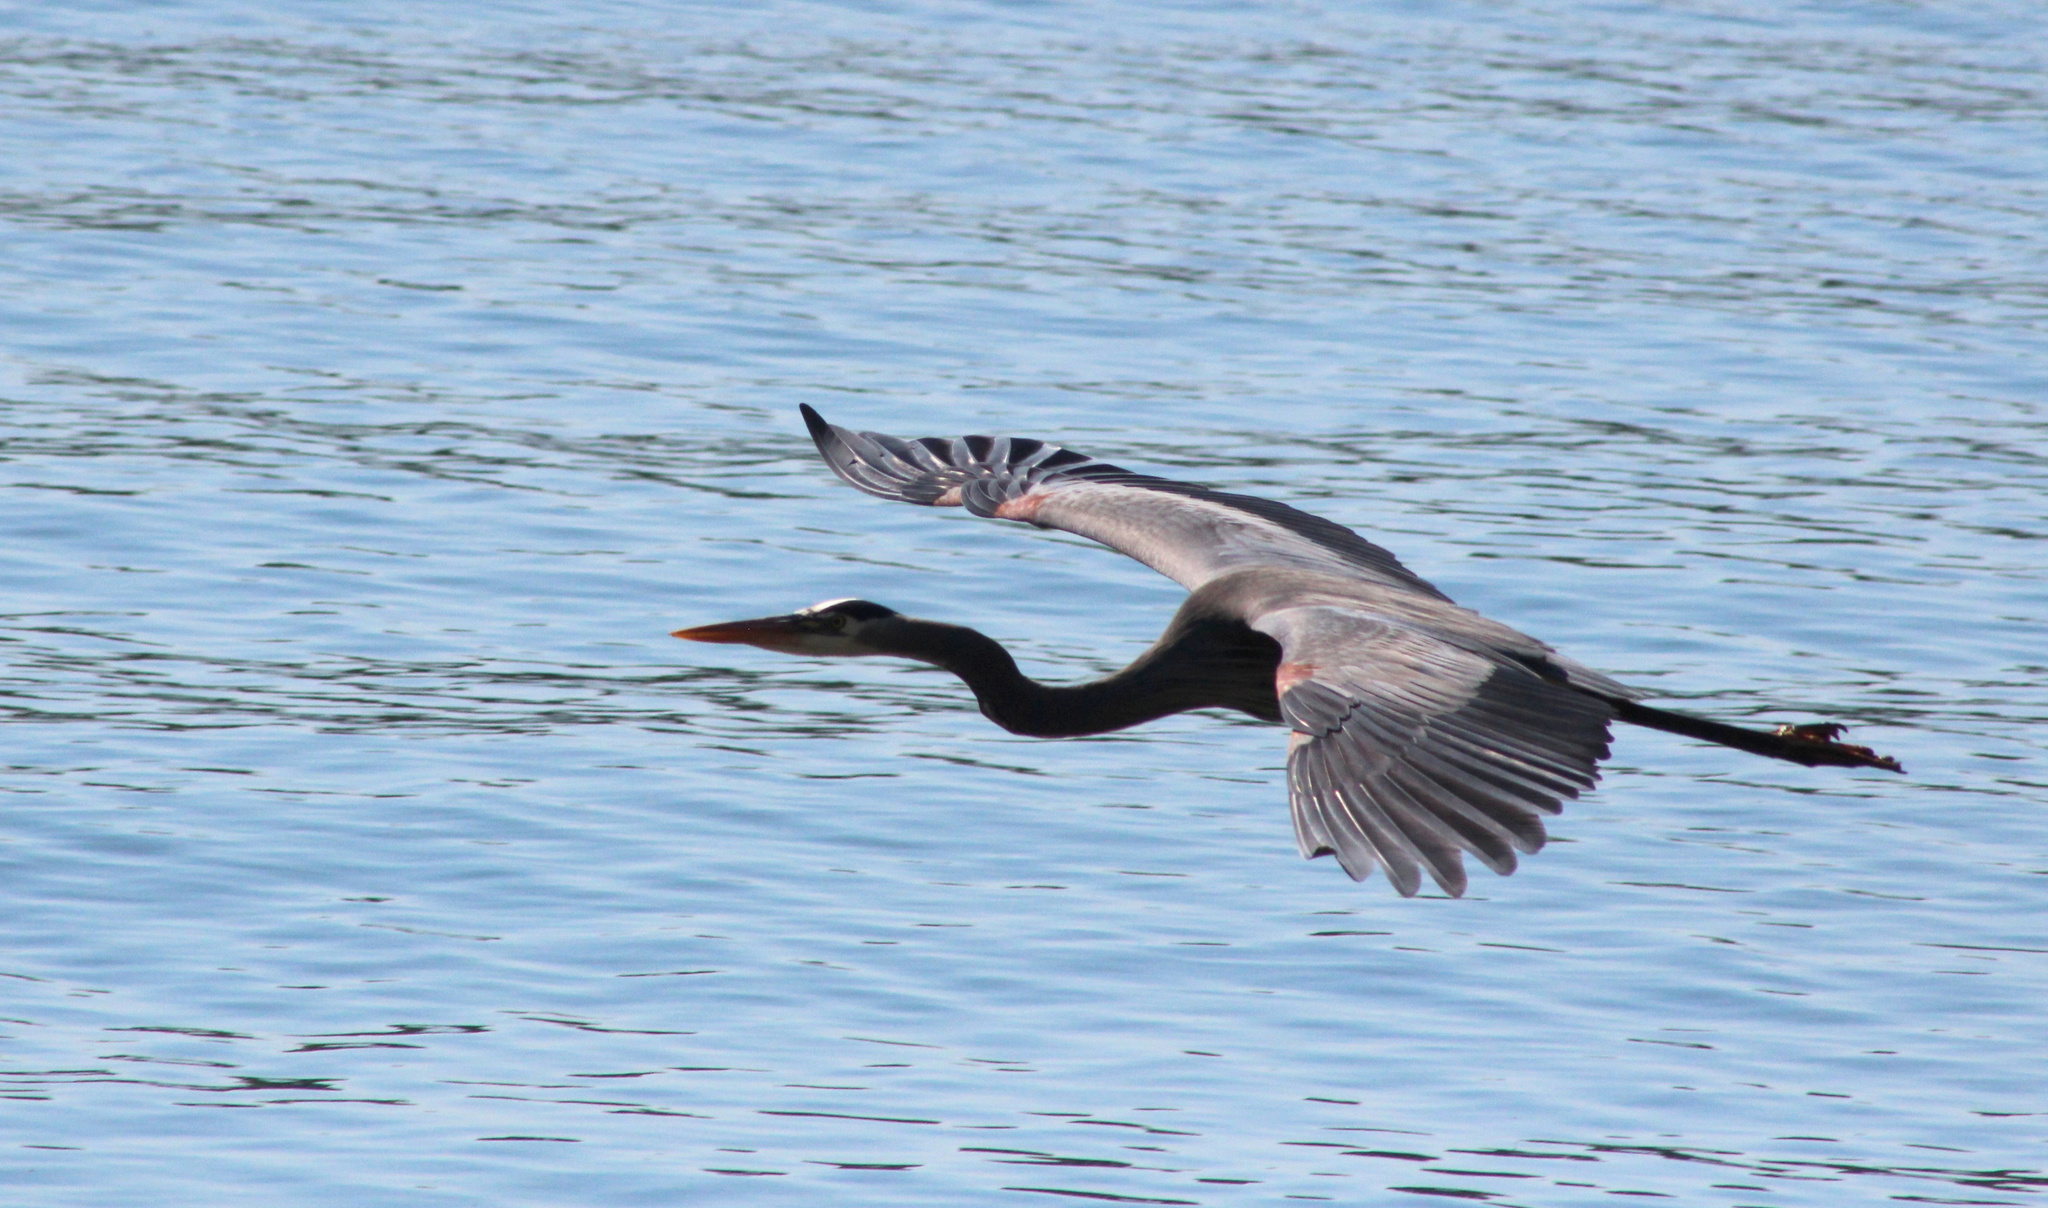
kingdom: Animalia
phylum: Chordata
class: Aves
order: Pelecaniformes
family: Ardeidae
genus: Ardea
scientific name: Ardea herodias
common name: Great blue heron
